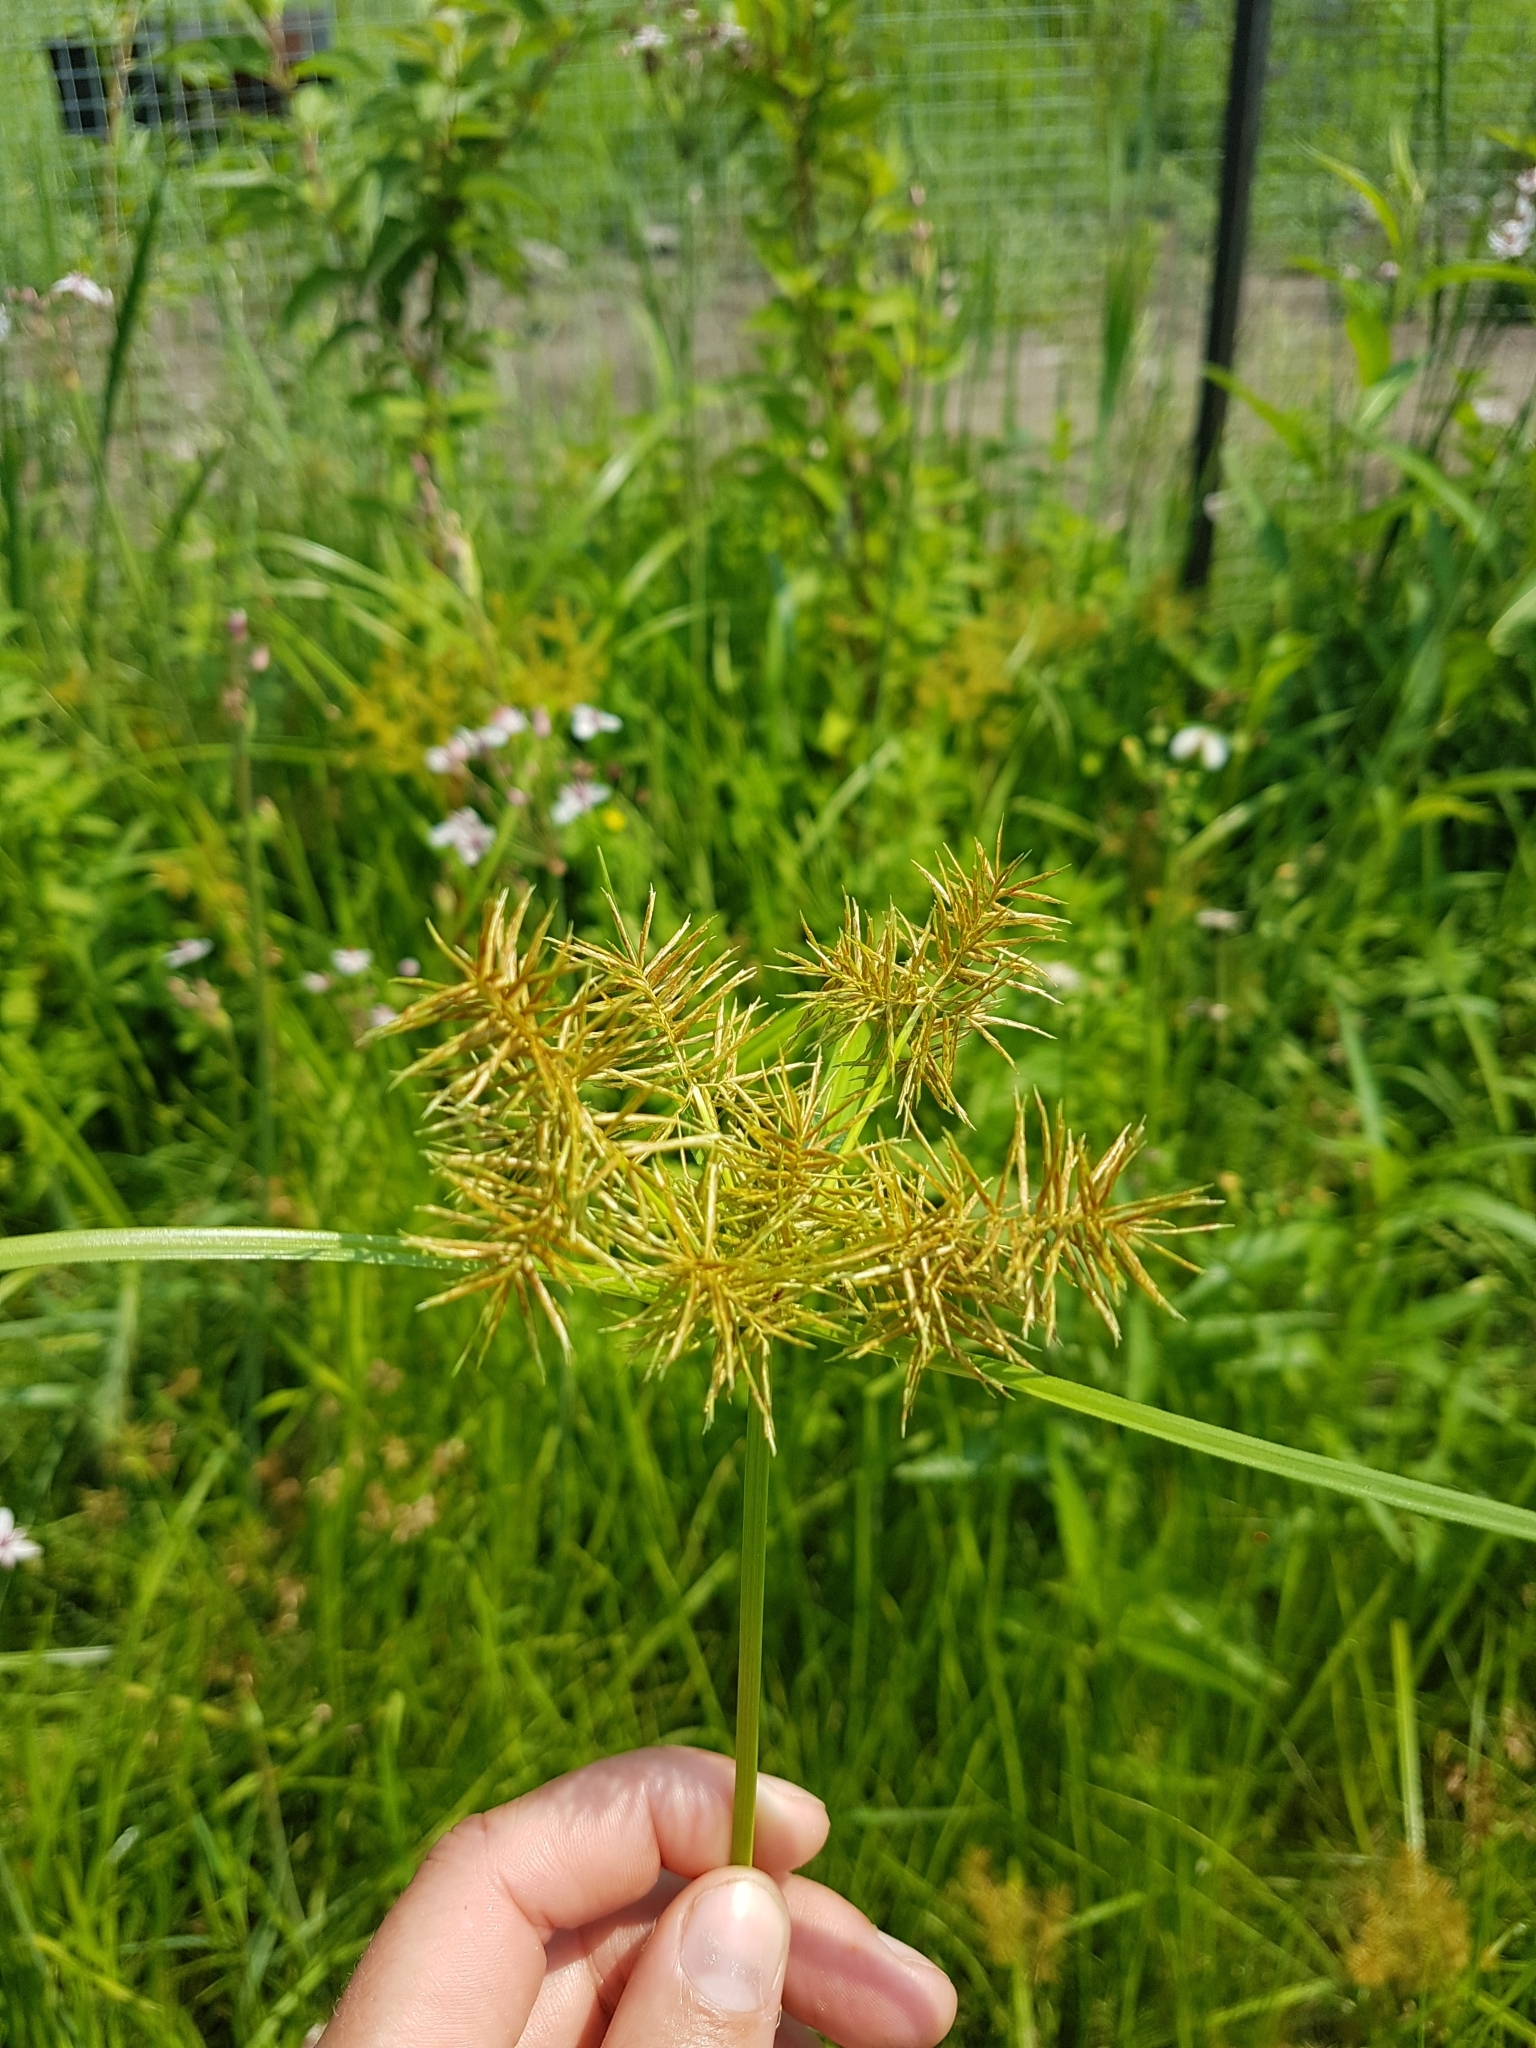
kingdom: Plantae
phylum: Tracheophyta
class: Liliopsida
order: Poales
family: Cyperaceae
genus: Cyperus
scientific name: Cyperus odoratus
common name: Fragrant flatsedge
